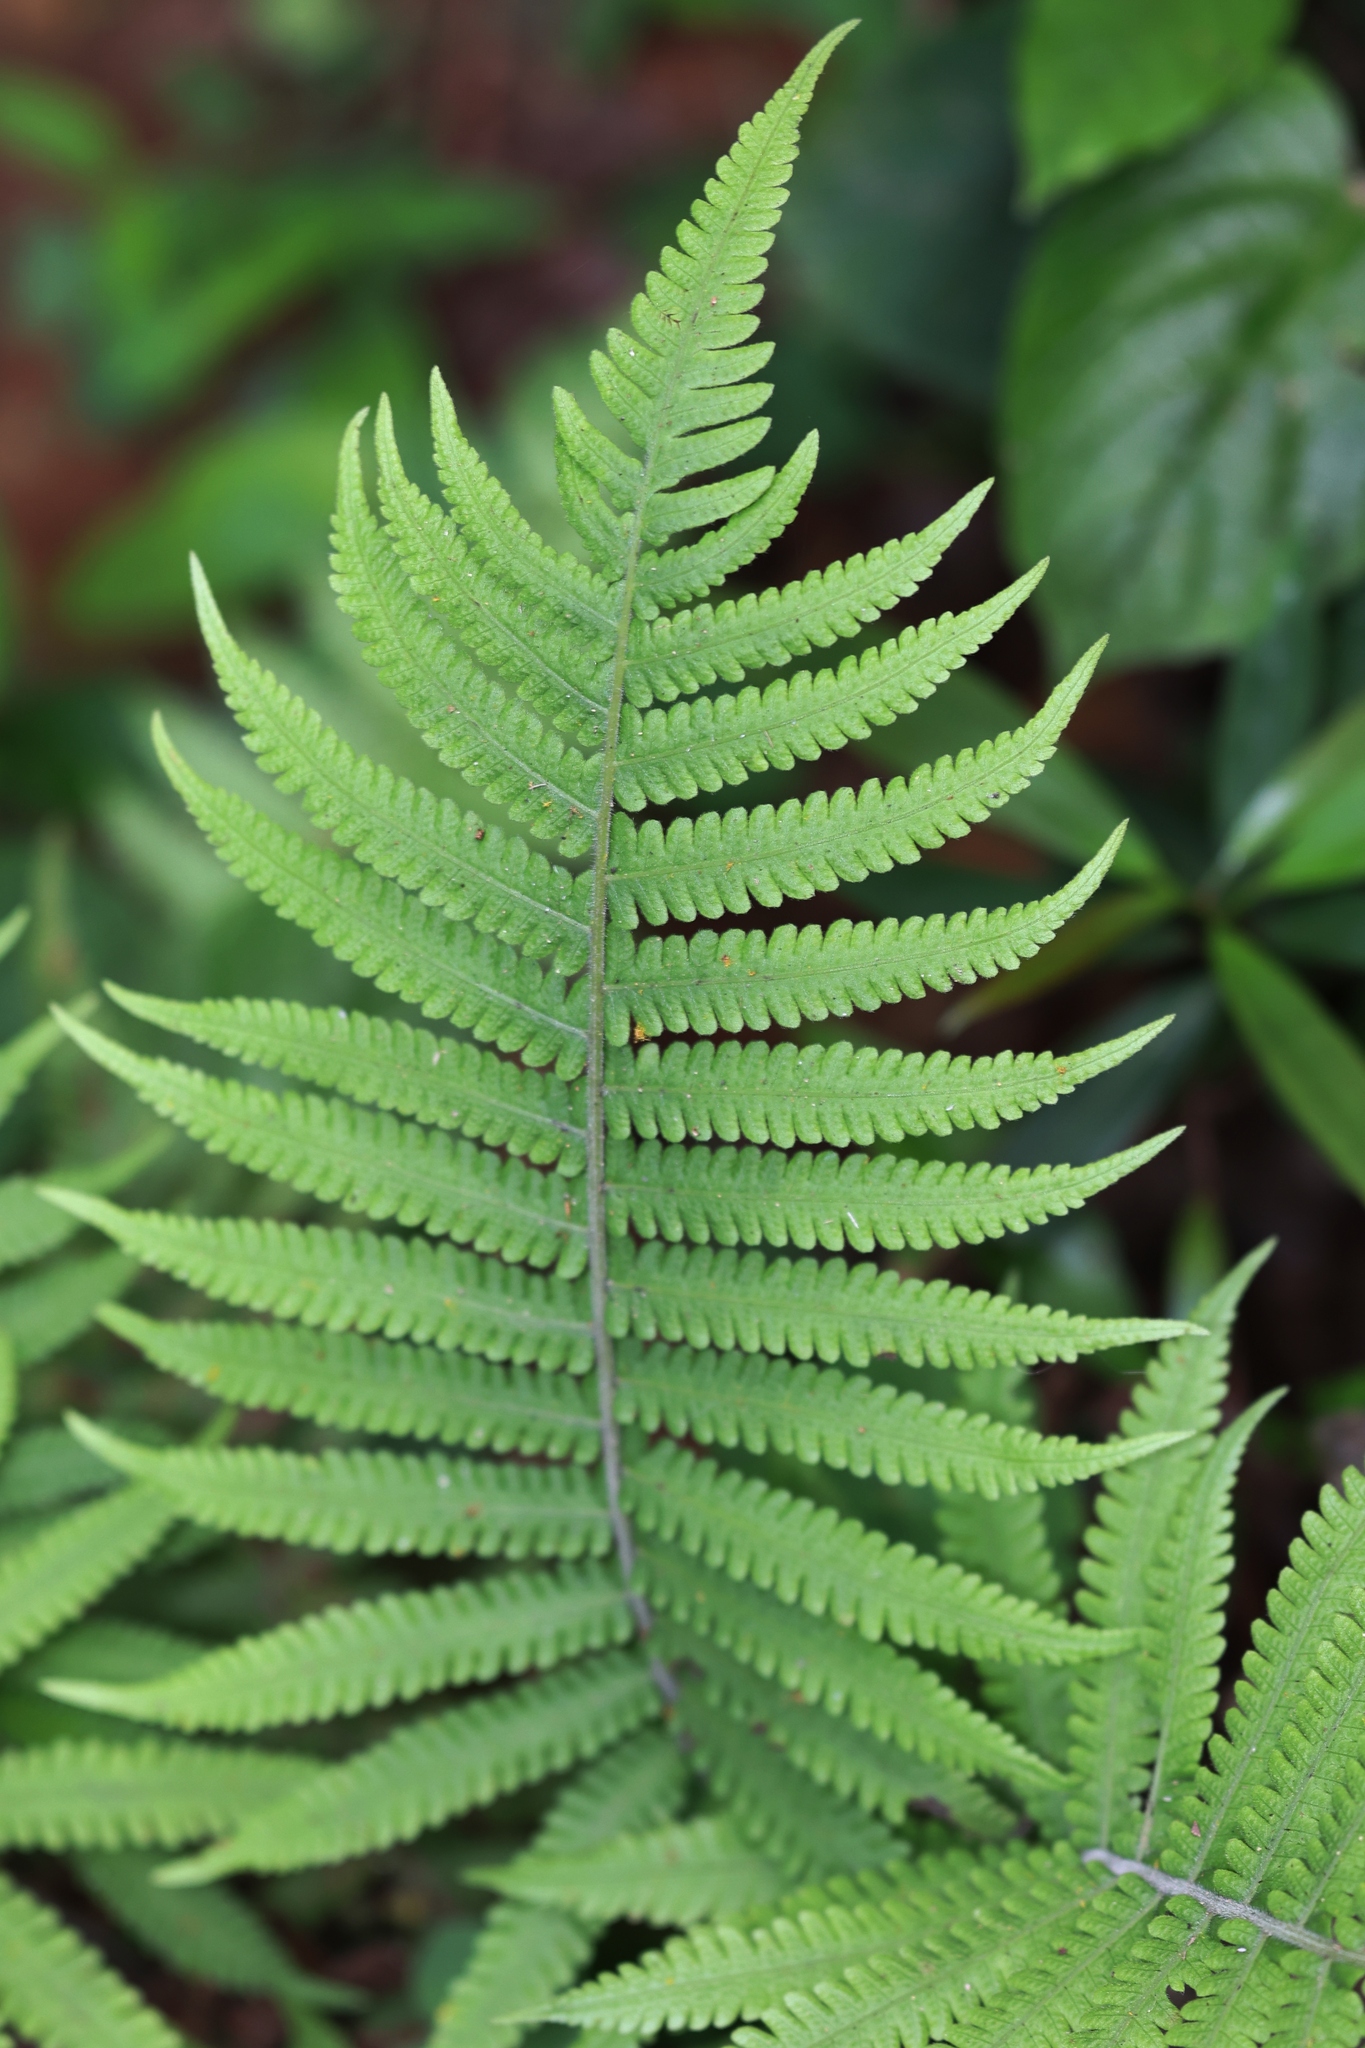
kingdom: Plantae
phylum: Tracheophyta
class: Polypodiopsida
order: Polypodiales
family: Thelypteridaceae
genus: Christella
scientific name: Christella parasitica
